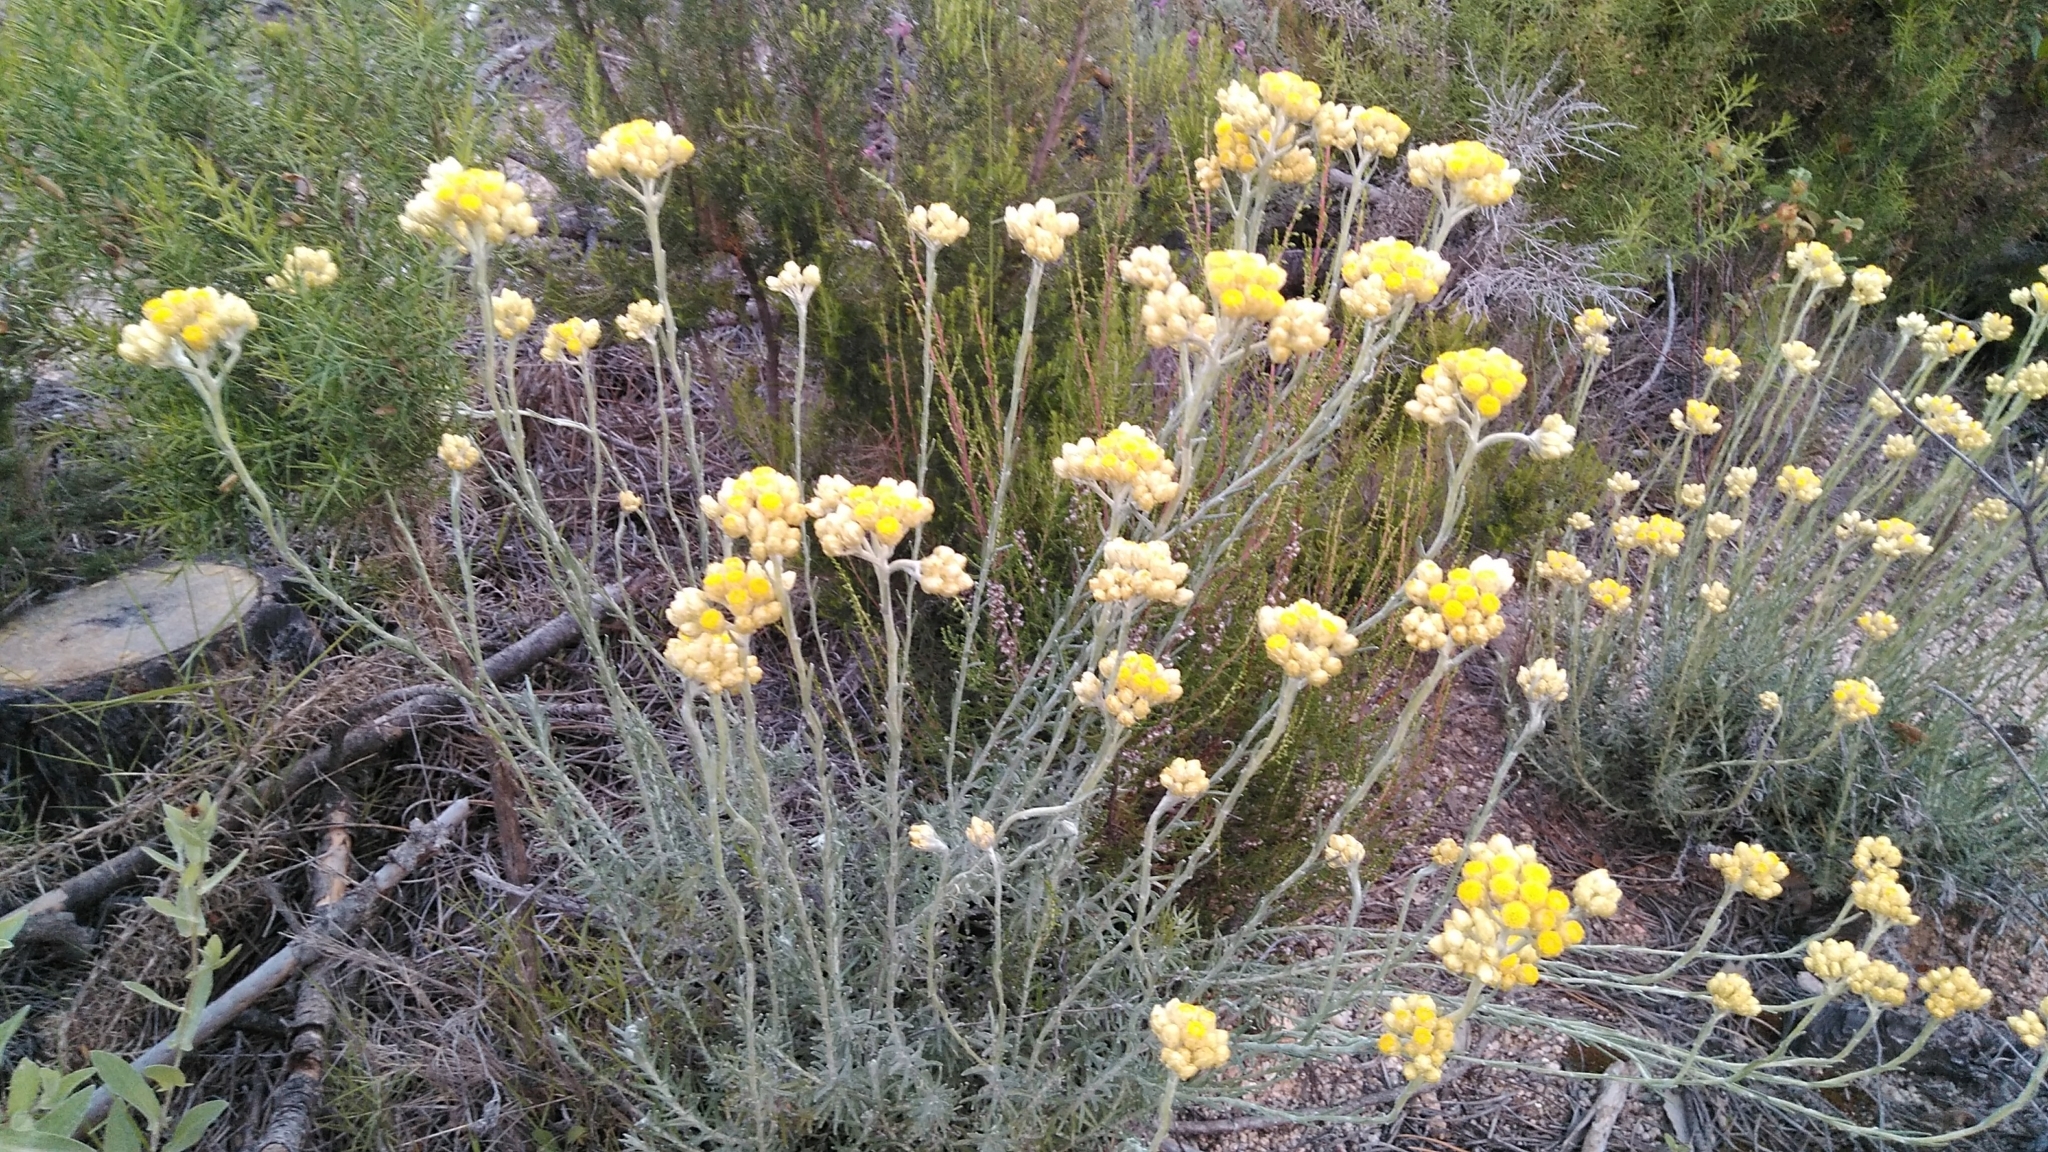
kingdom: Plantae
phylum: Tracheophyta
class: Magnoliopsida
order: Asterales
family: Asteraceae
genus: Helichrysum
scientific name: Helichrysum stoechas
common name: Goldilocks
